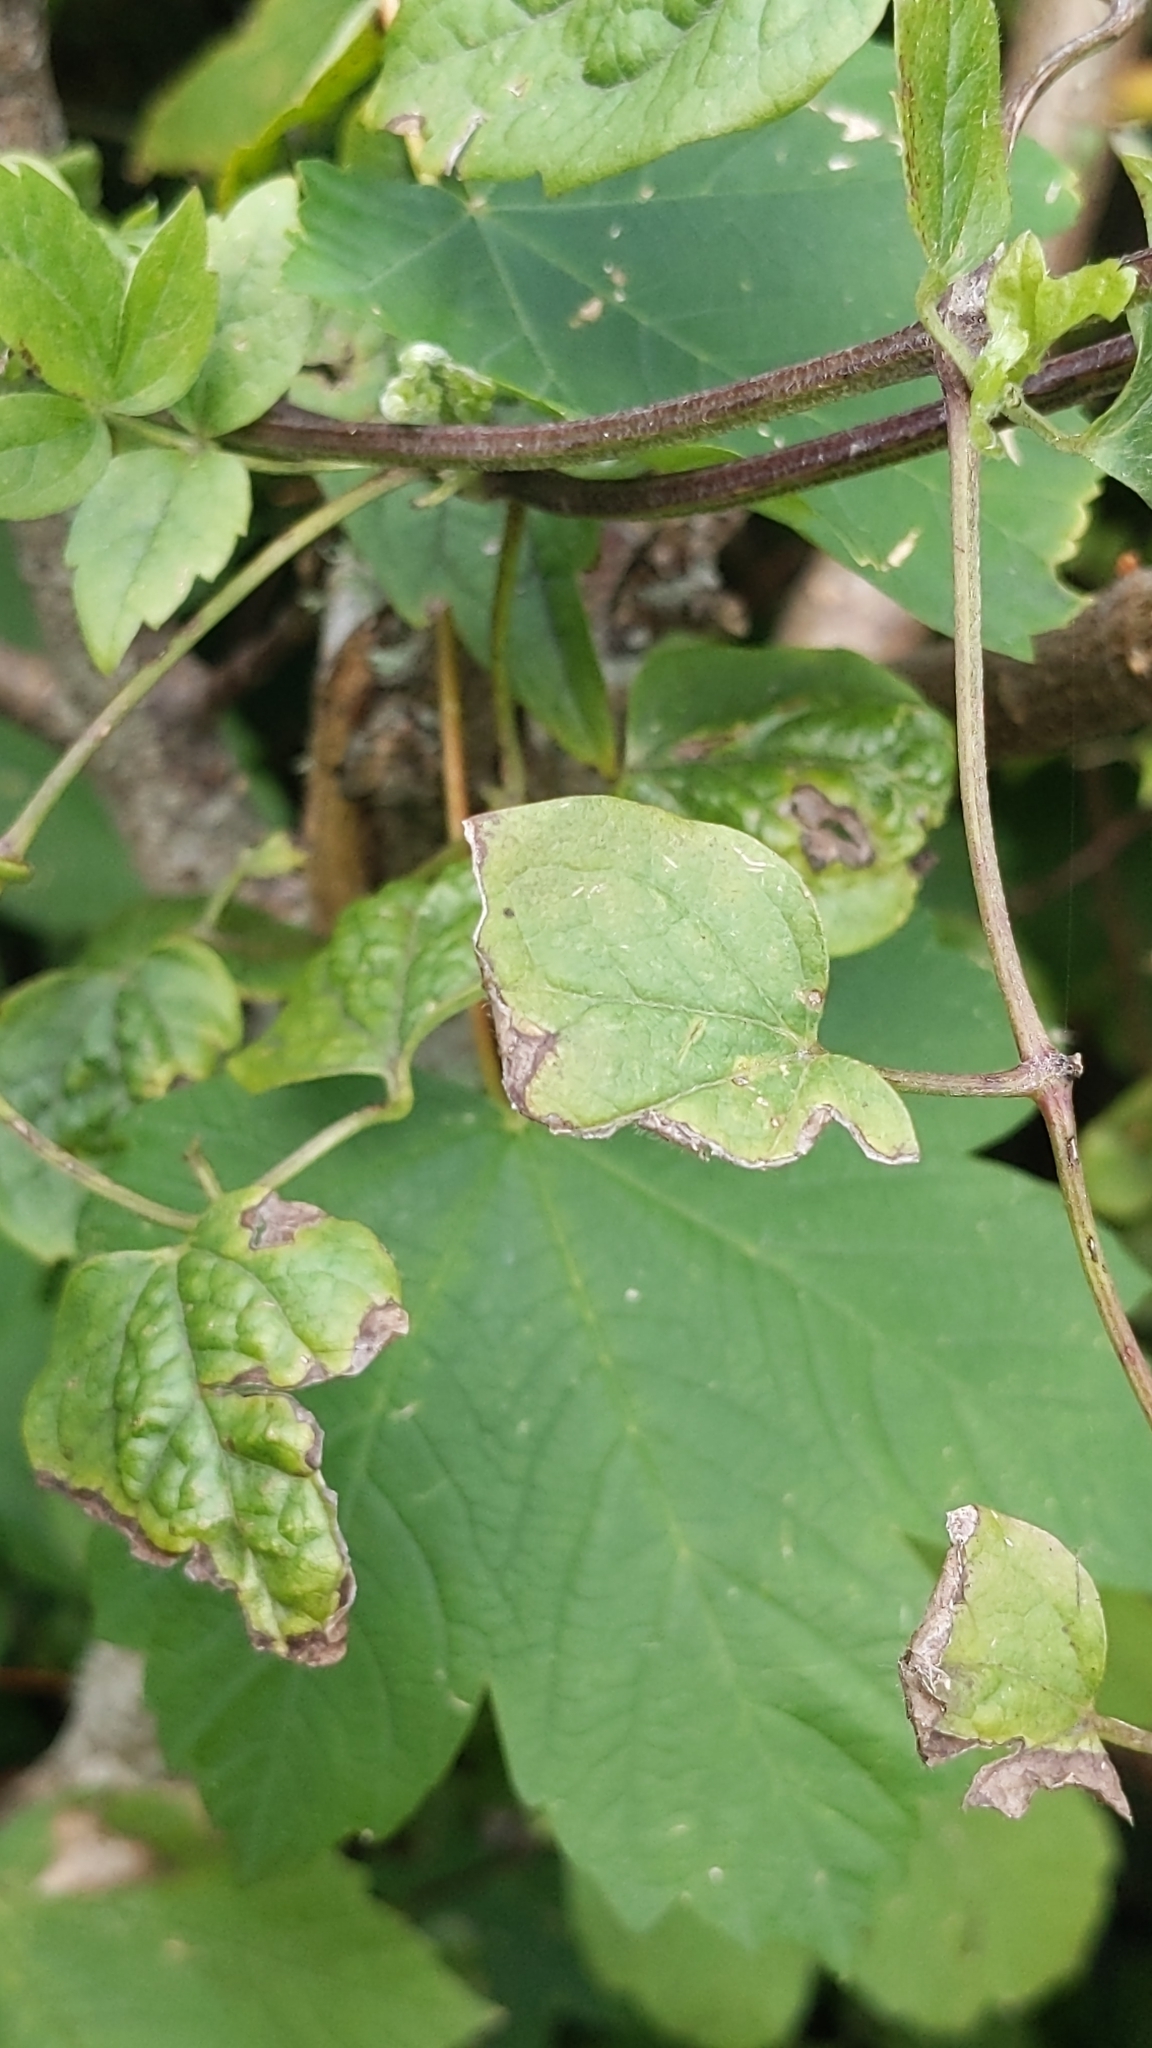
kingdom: Plantae
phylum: Tracheophyta
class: Magnoliopsida
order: Ranunculales
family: Ranunculaceae
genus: Clematis
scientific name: Clematis vitalba
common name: Evergreen clematis
